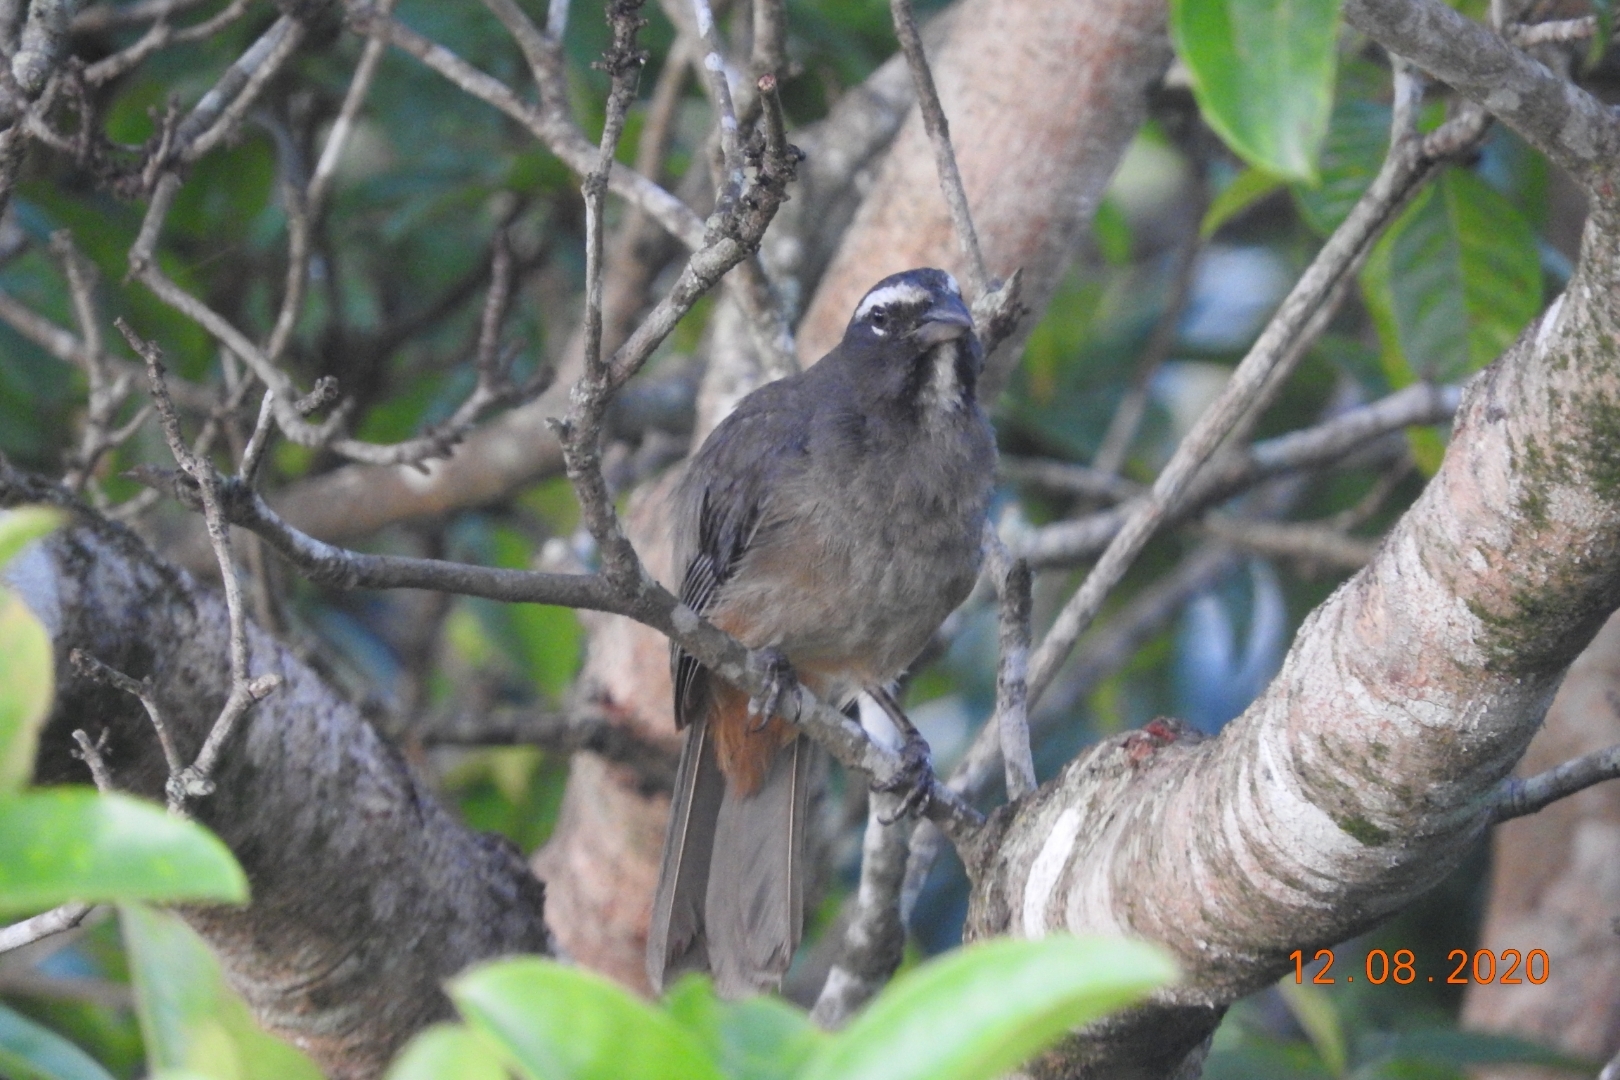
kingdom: Animalia
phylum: Chordata
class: Aves
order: Passeriformes
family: Thraupidae
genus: Saltator
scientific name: Saltator grandis
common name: Cinnamon-bellied saltator
